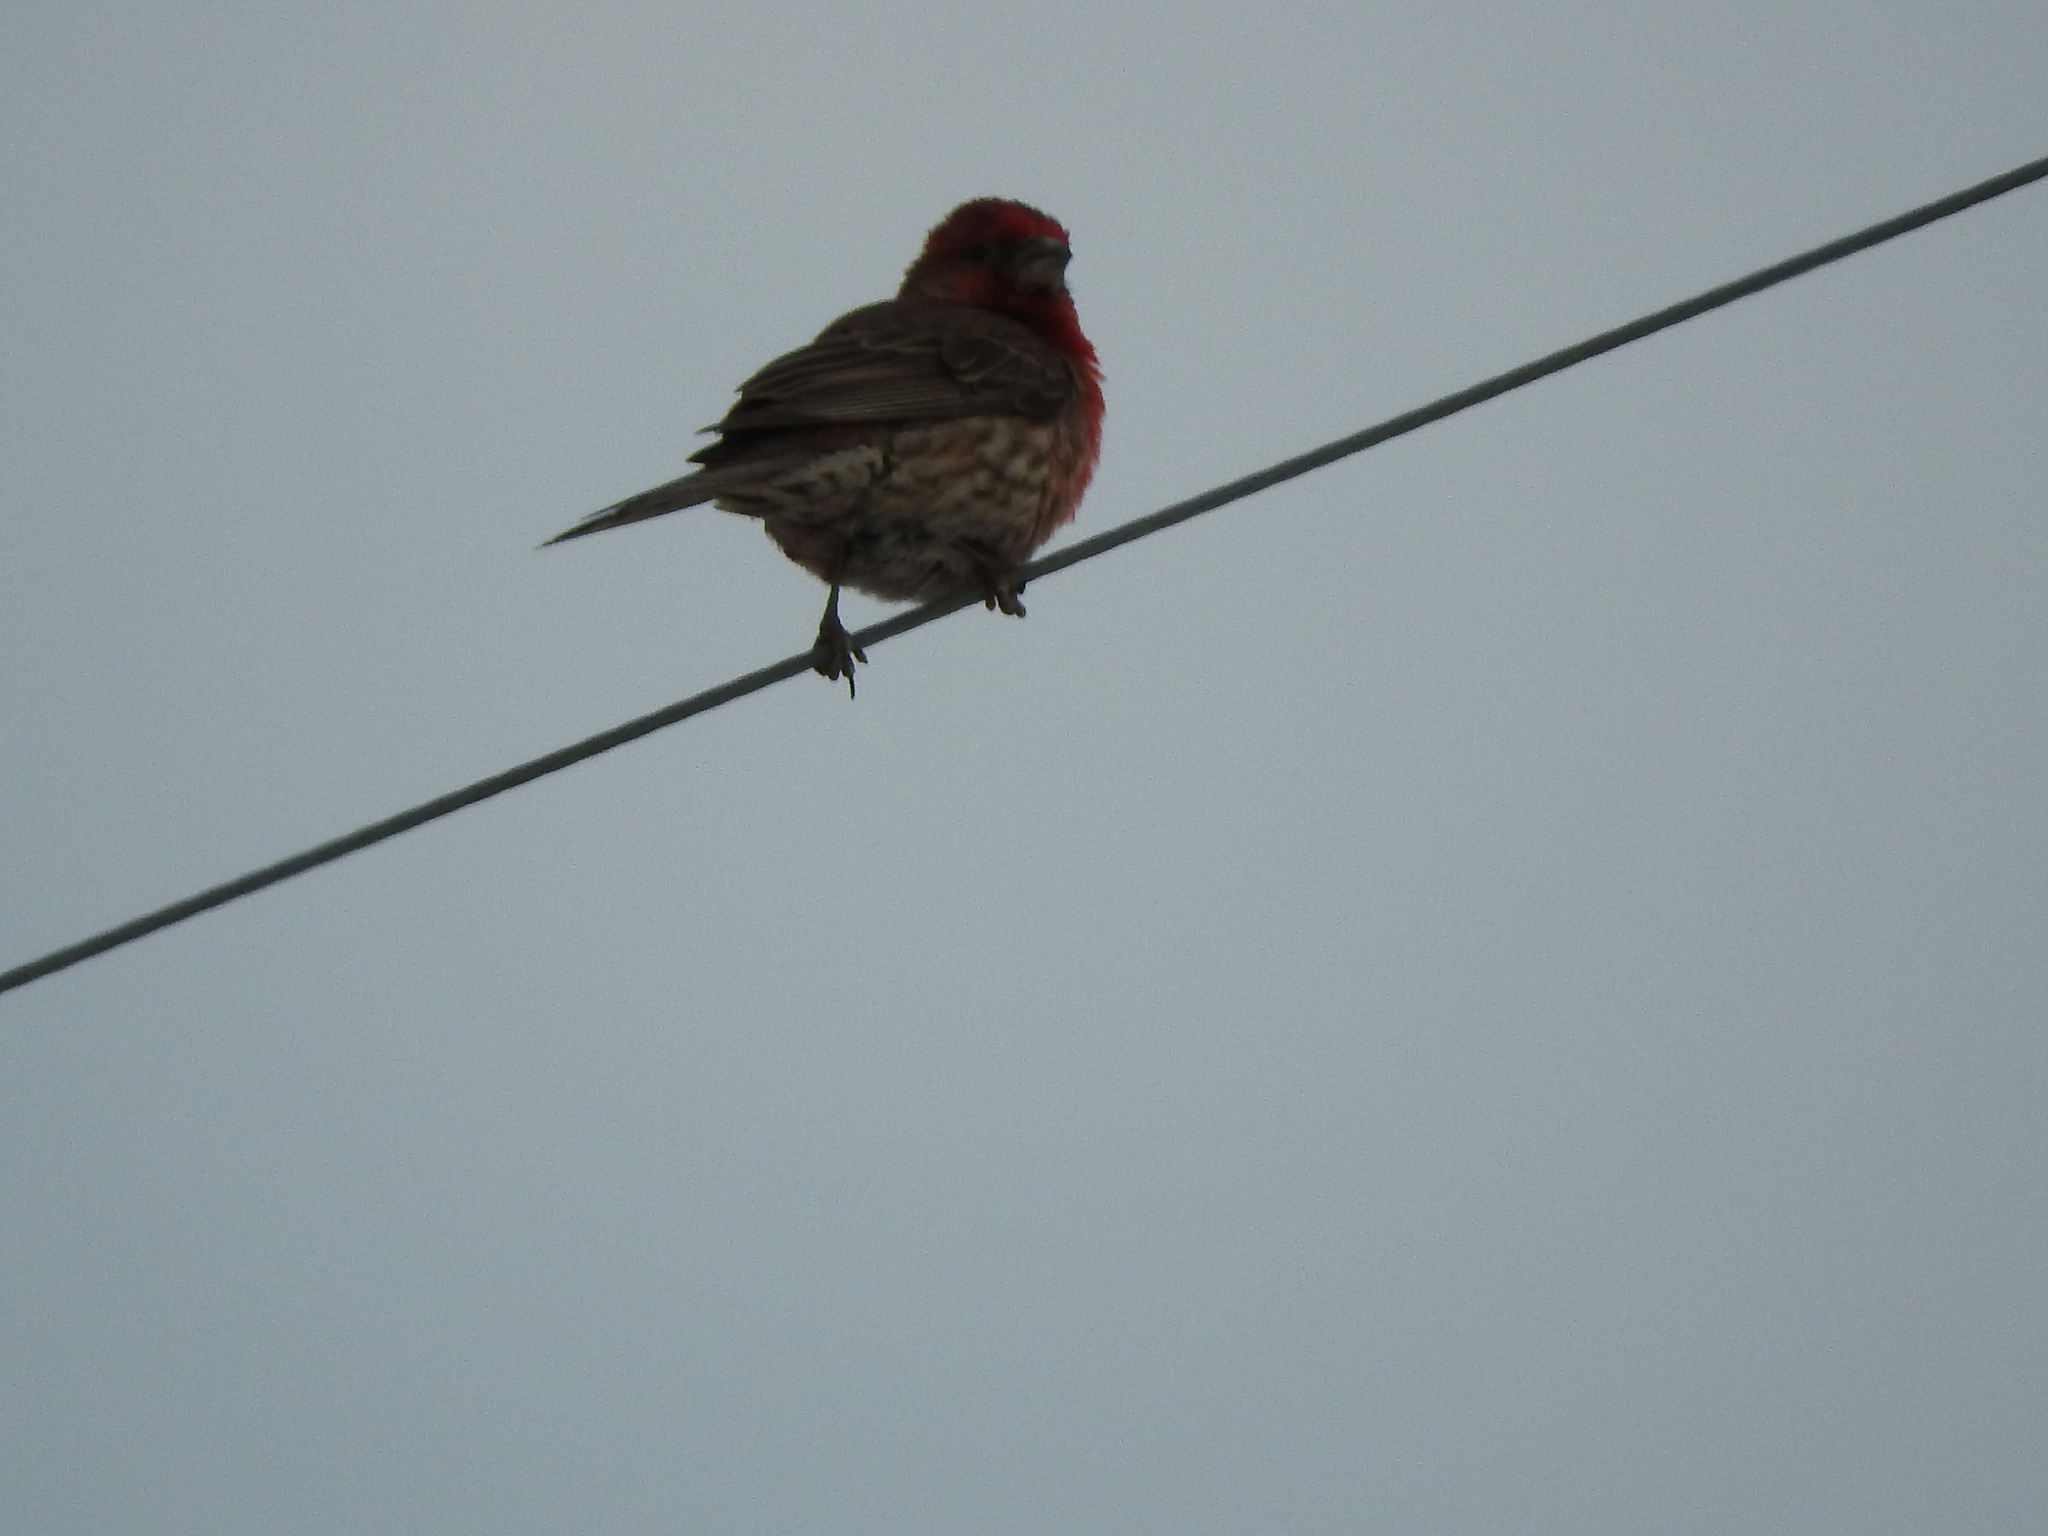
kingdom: Animalia
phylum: Chordata
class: Aves
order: Passeriformes
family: Fringillidae
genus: Haemorhous
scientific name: Haemorhous mexicanus
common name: House finch
